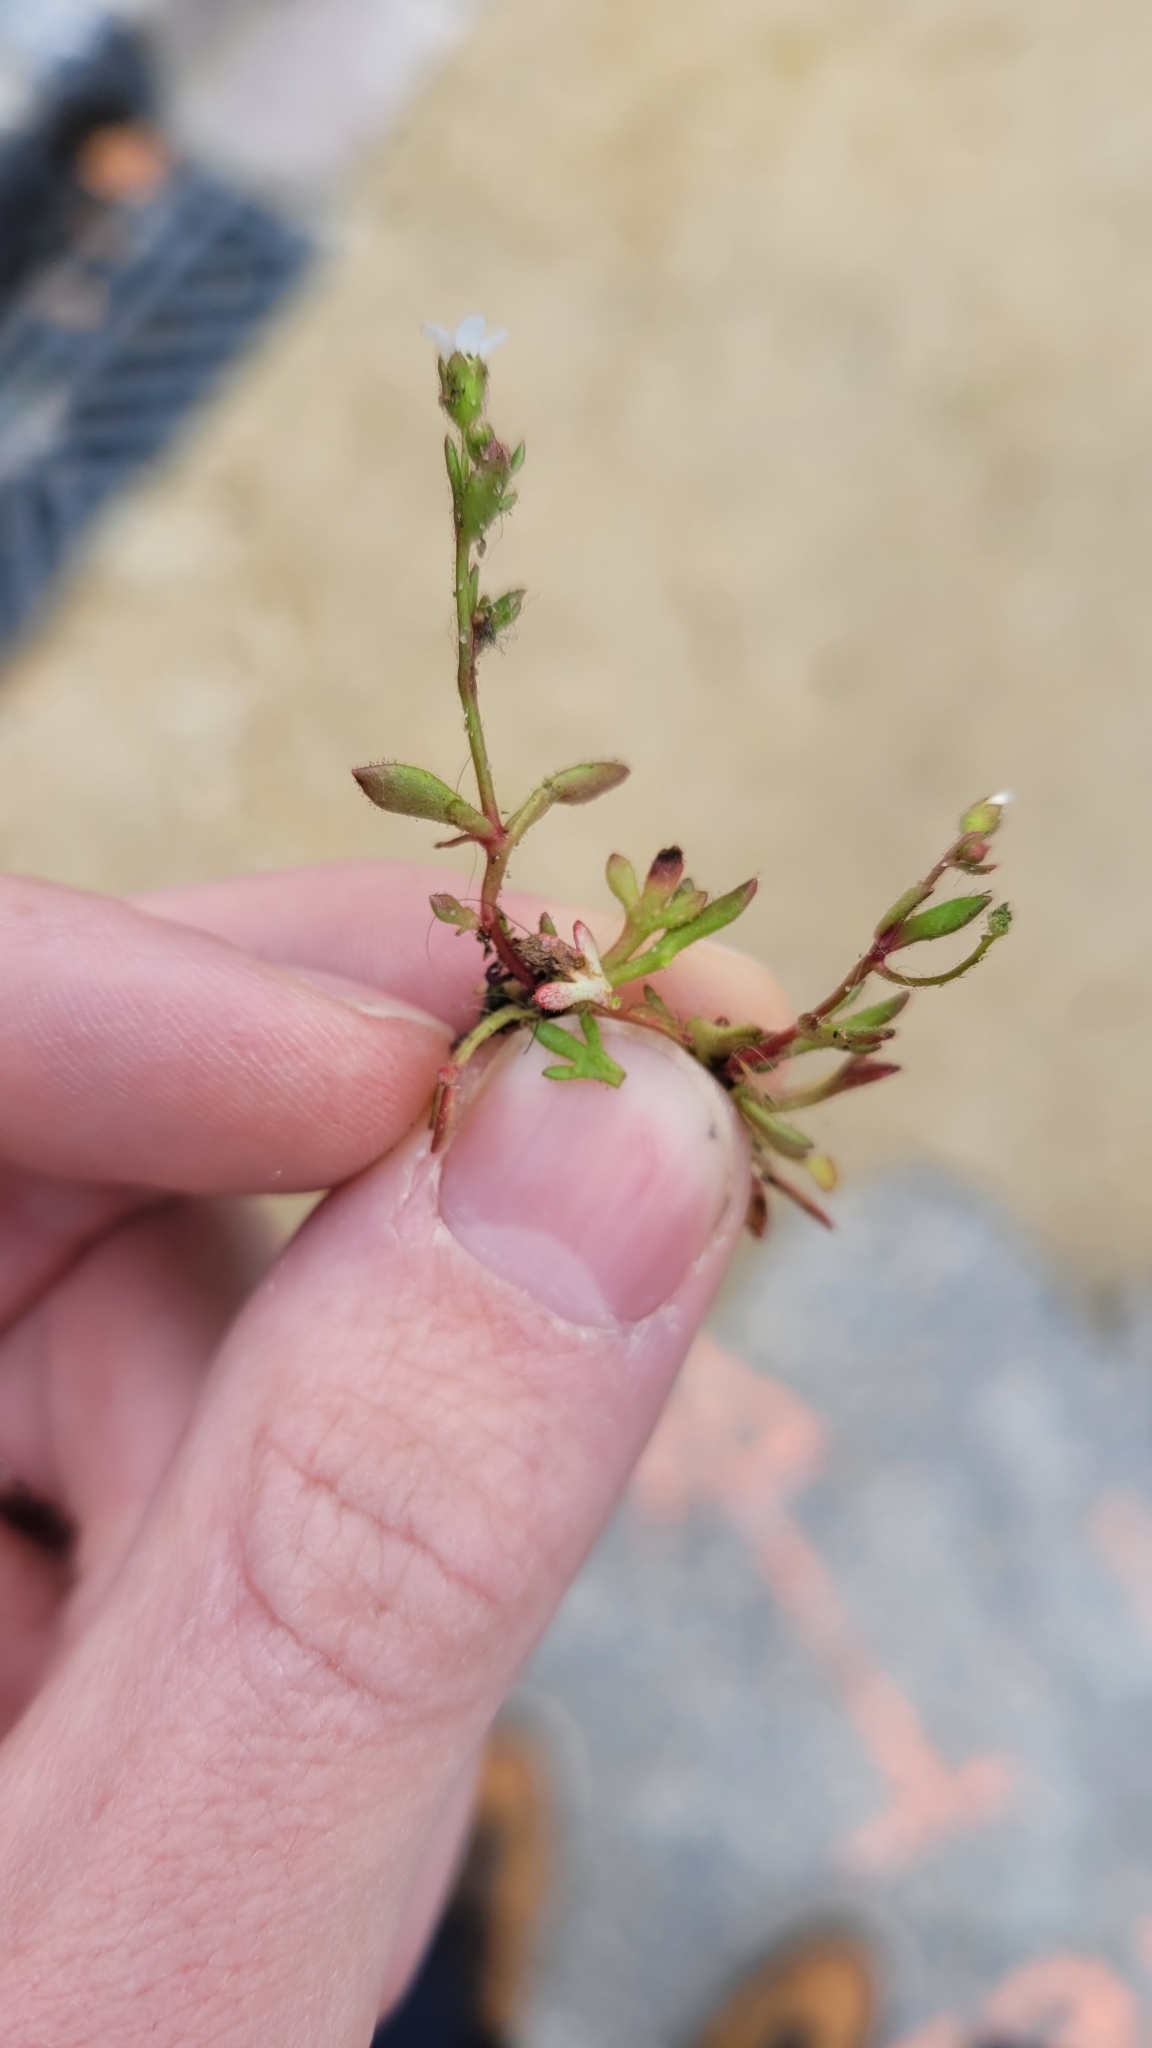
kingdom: Plantae
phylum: Tracheophyta
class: Magnoliopsida
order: Saxifragales
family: Saxifragaceae
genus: Saxifraga
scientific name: Saxifraga tridactylites
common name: Rue-leaved saxifrage
